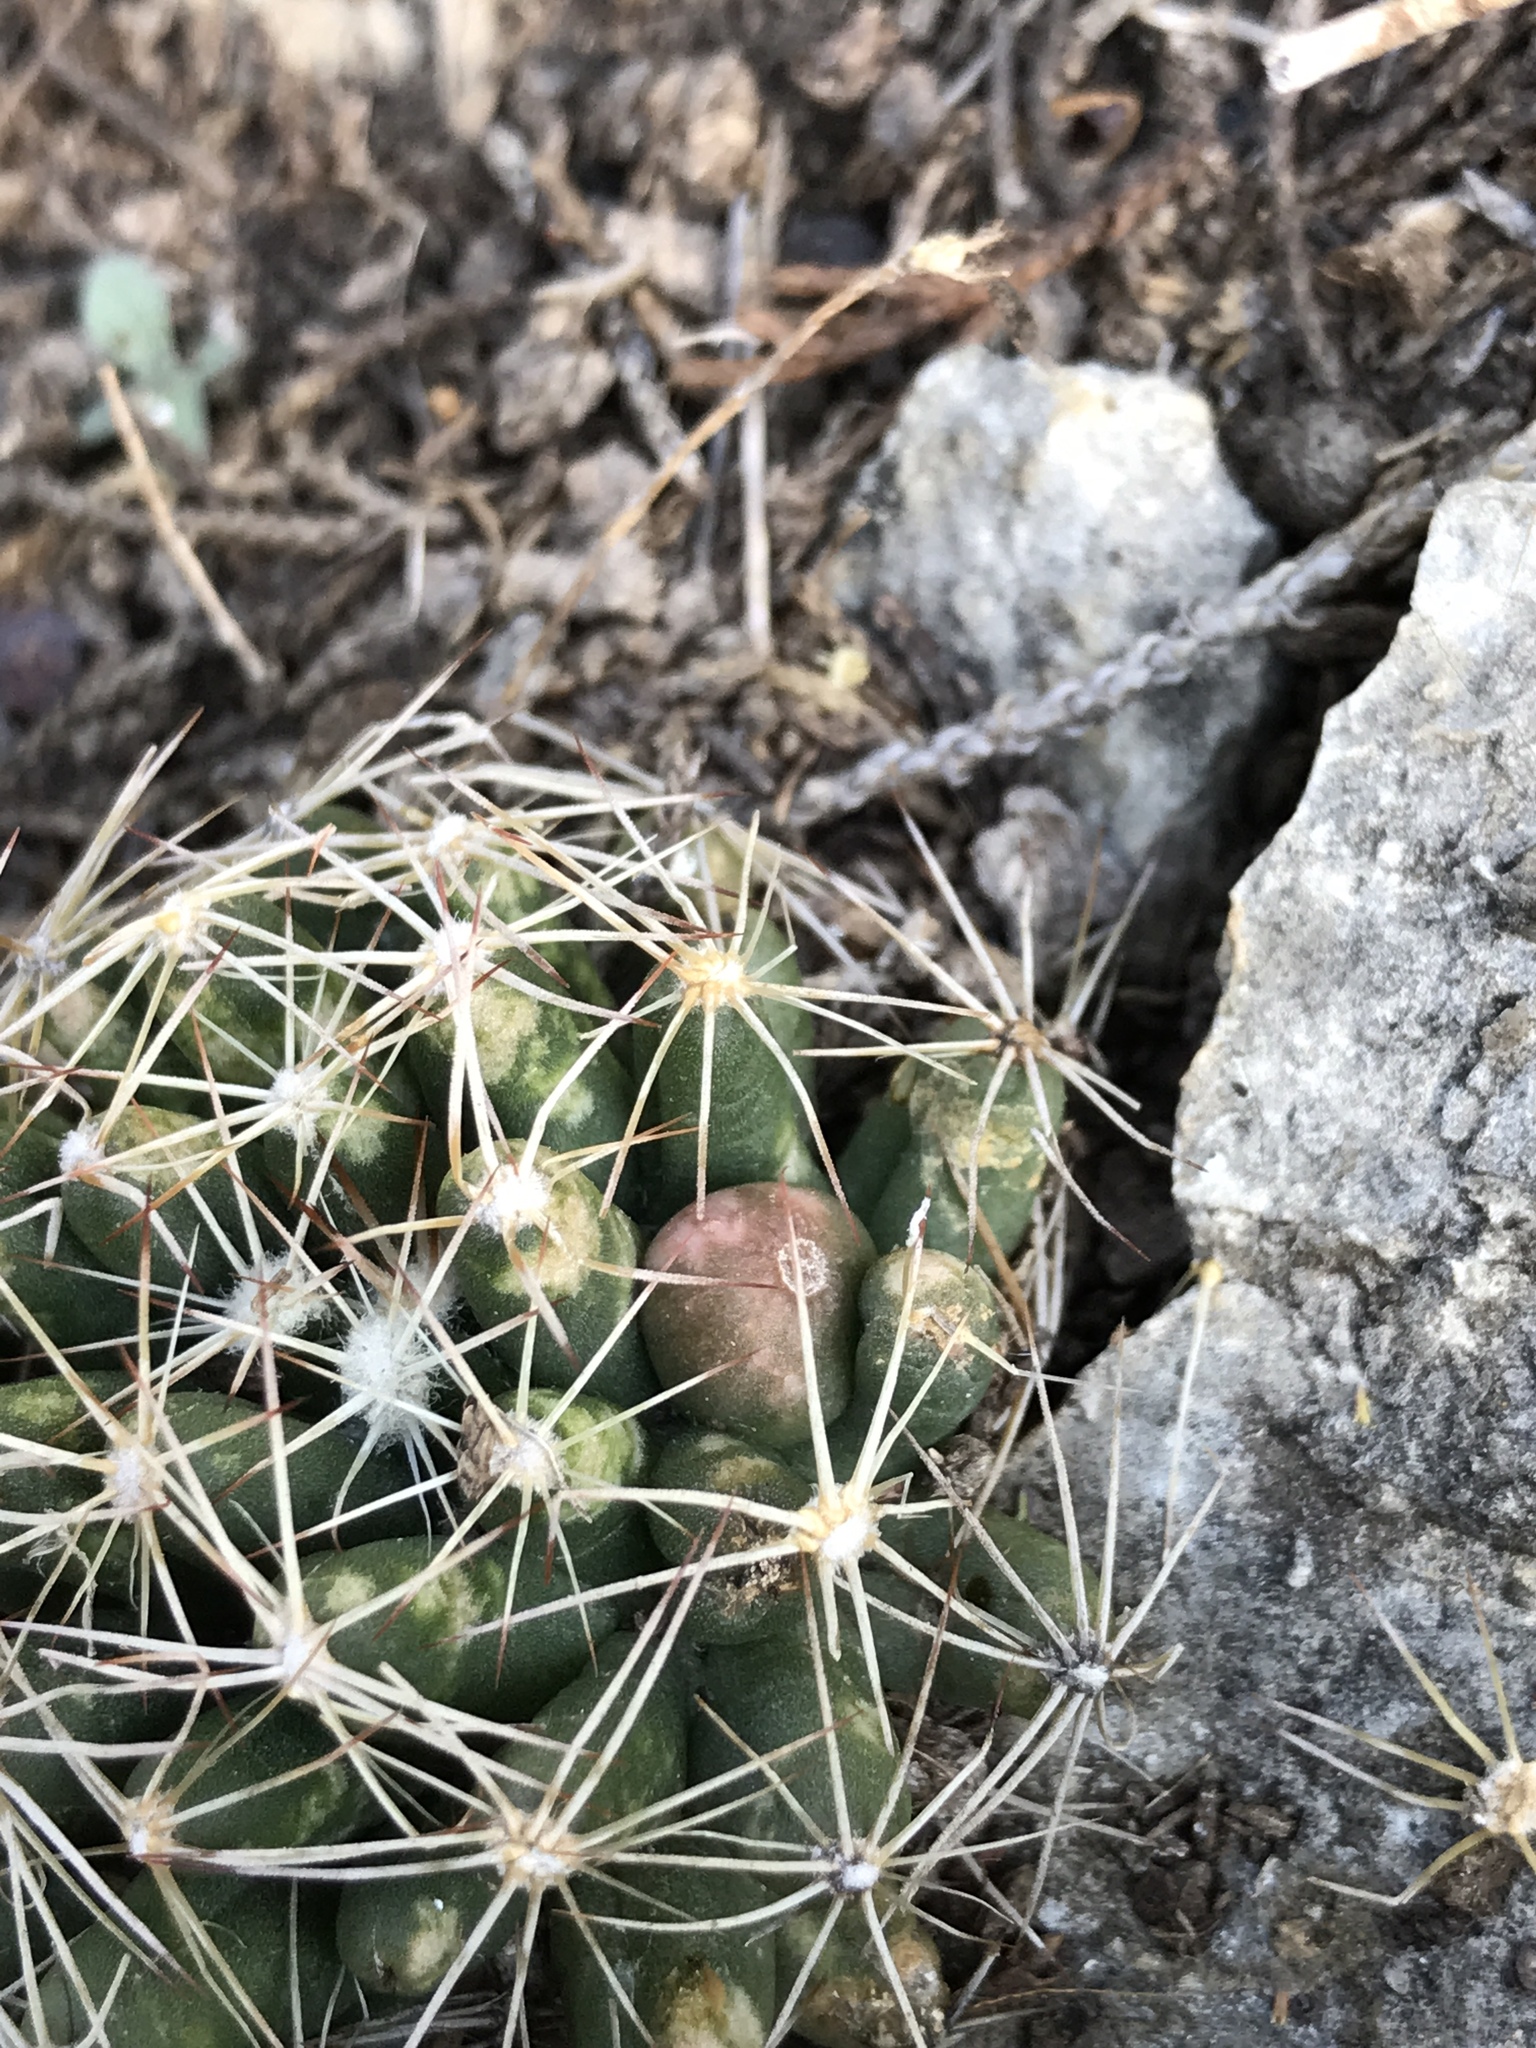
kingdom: Plantae
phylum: Tracheophyta
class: Magnoliopsida
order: Caryophyllales
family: Cactaceae
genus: Pelecyphora
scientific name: Pelecyphora missouriensis
